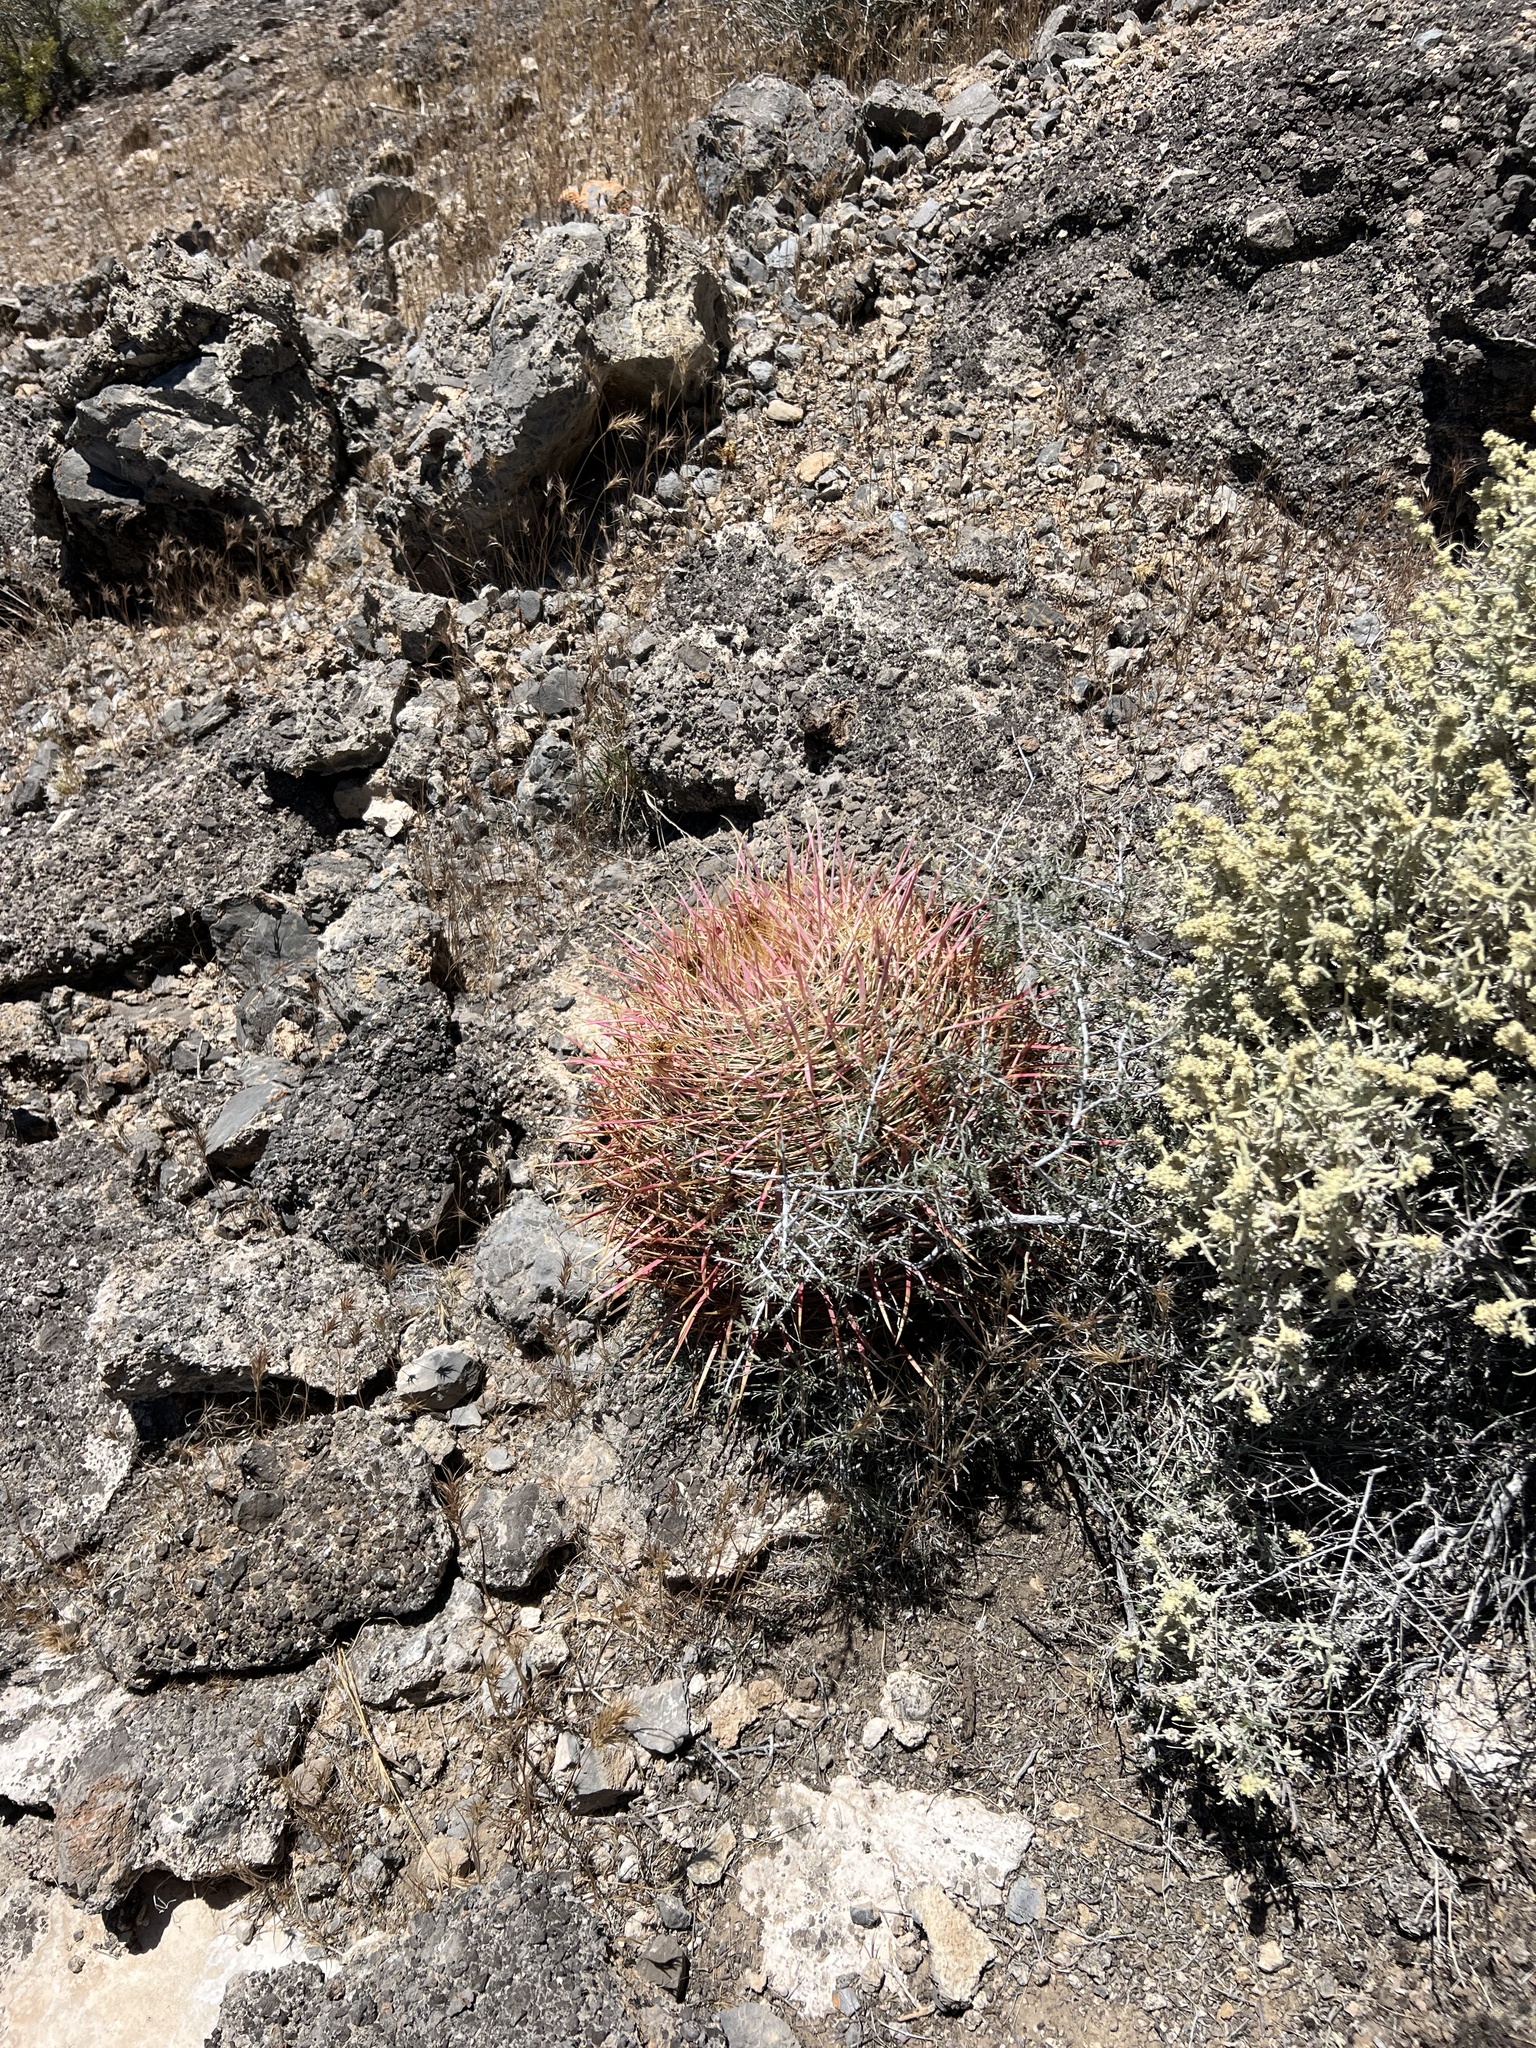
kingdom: Plantae
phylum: Tracheophyta
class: Magnoliopsida
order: Caryophyllales
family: Cactaceae
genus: Ferocactus
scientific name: Ferocactus cylindraceus
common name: California barrel cactus
